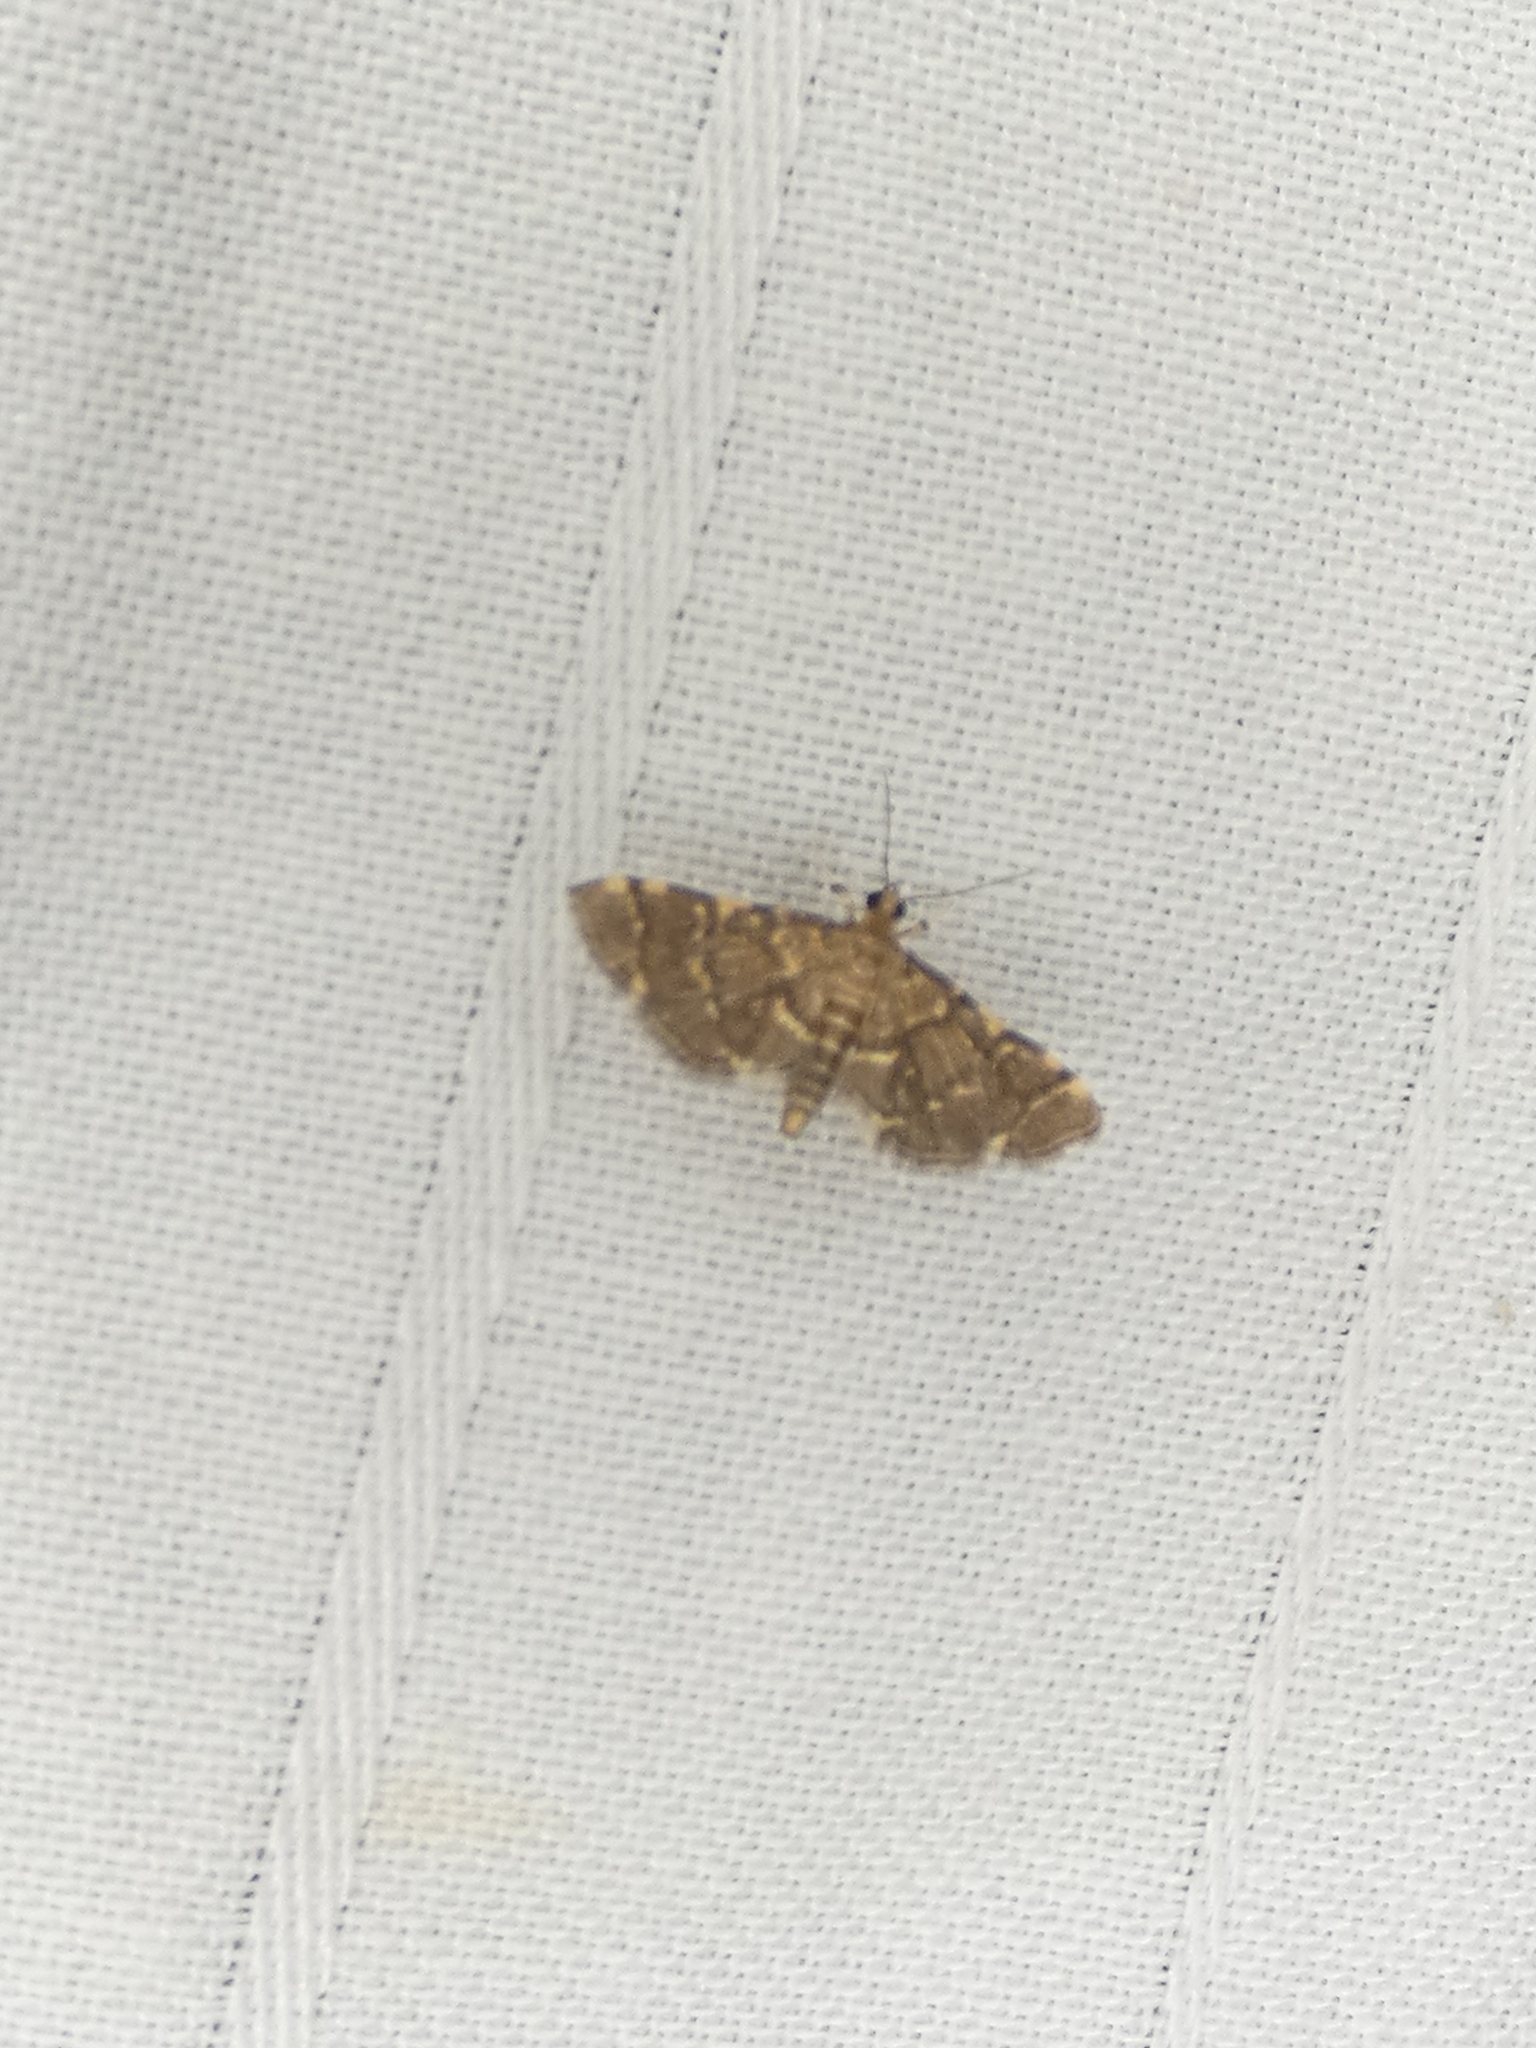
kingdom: Animalia
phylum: Arthropoda
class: Insecta
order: Lepidoptera
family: Crambidae
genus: Anageshna
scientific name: Anageshna primordialis
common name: Yellow-spotted webworm moth
